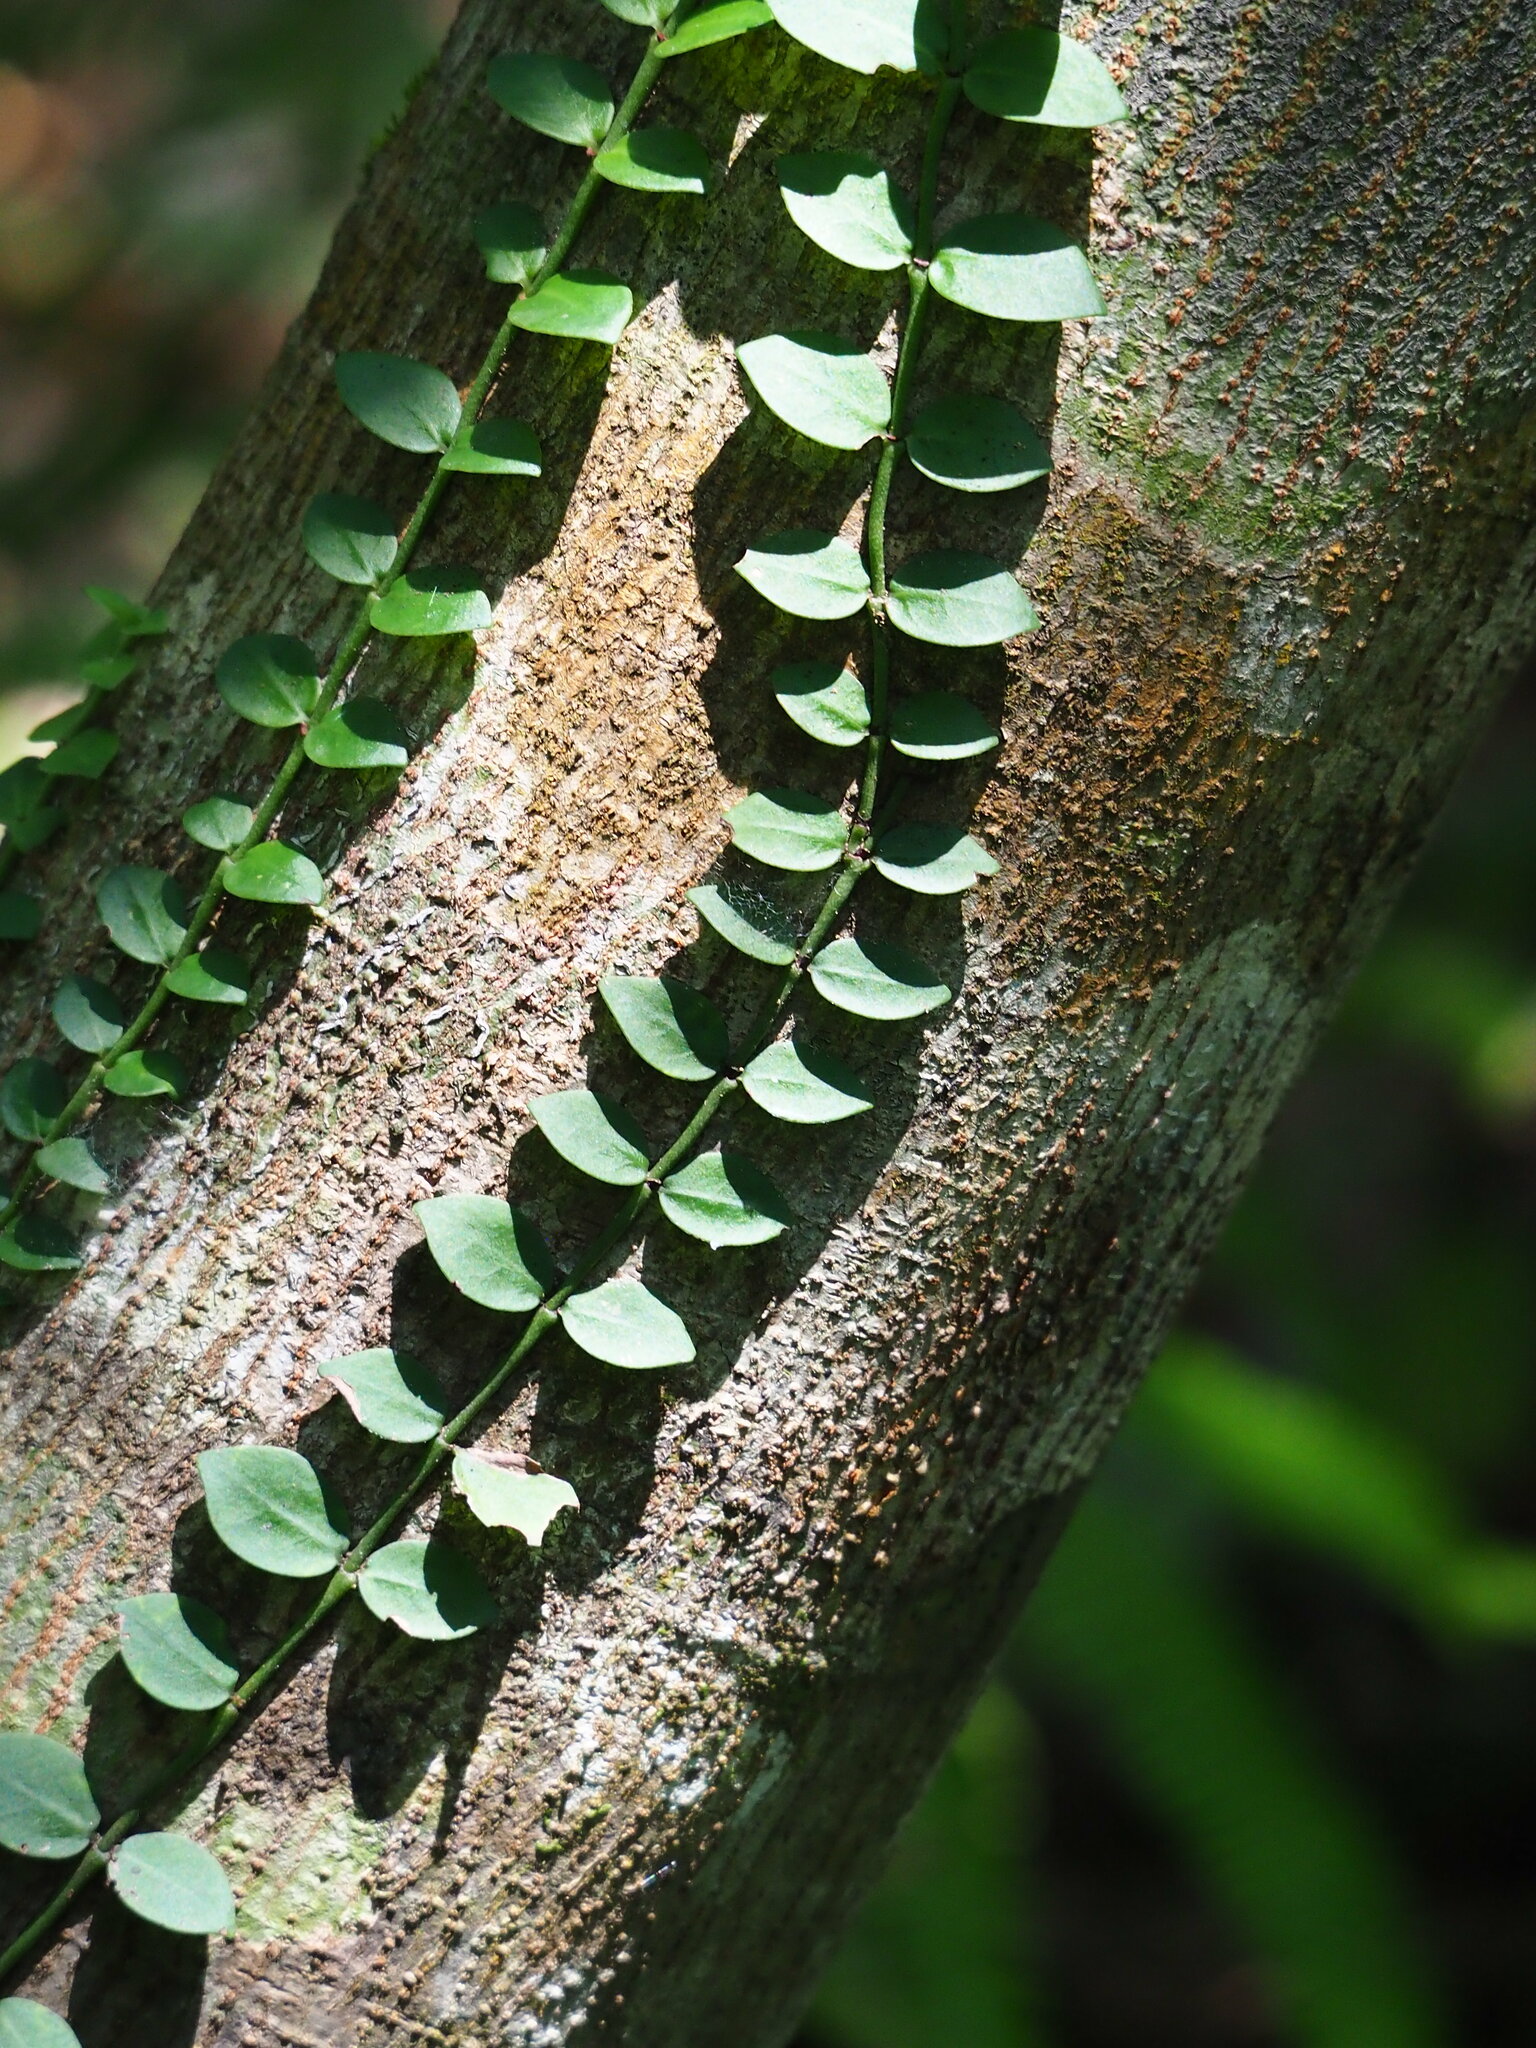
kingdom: Plantae
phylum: Tracheophyta
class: Magnoliopsida
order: Gentianales
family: Rubiaceae
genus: Psychotria
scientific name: Psychotria serpens
